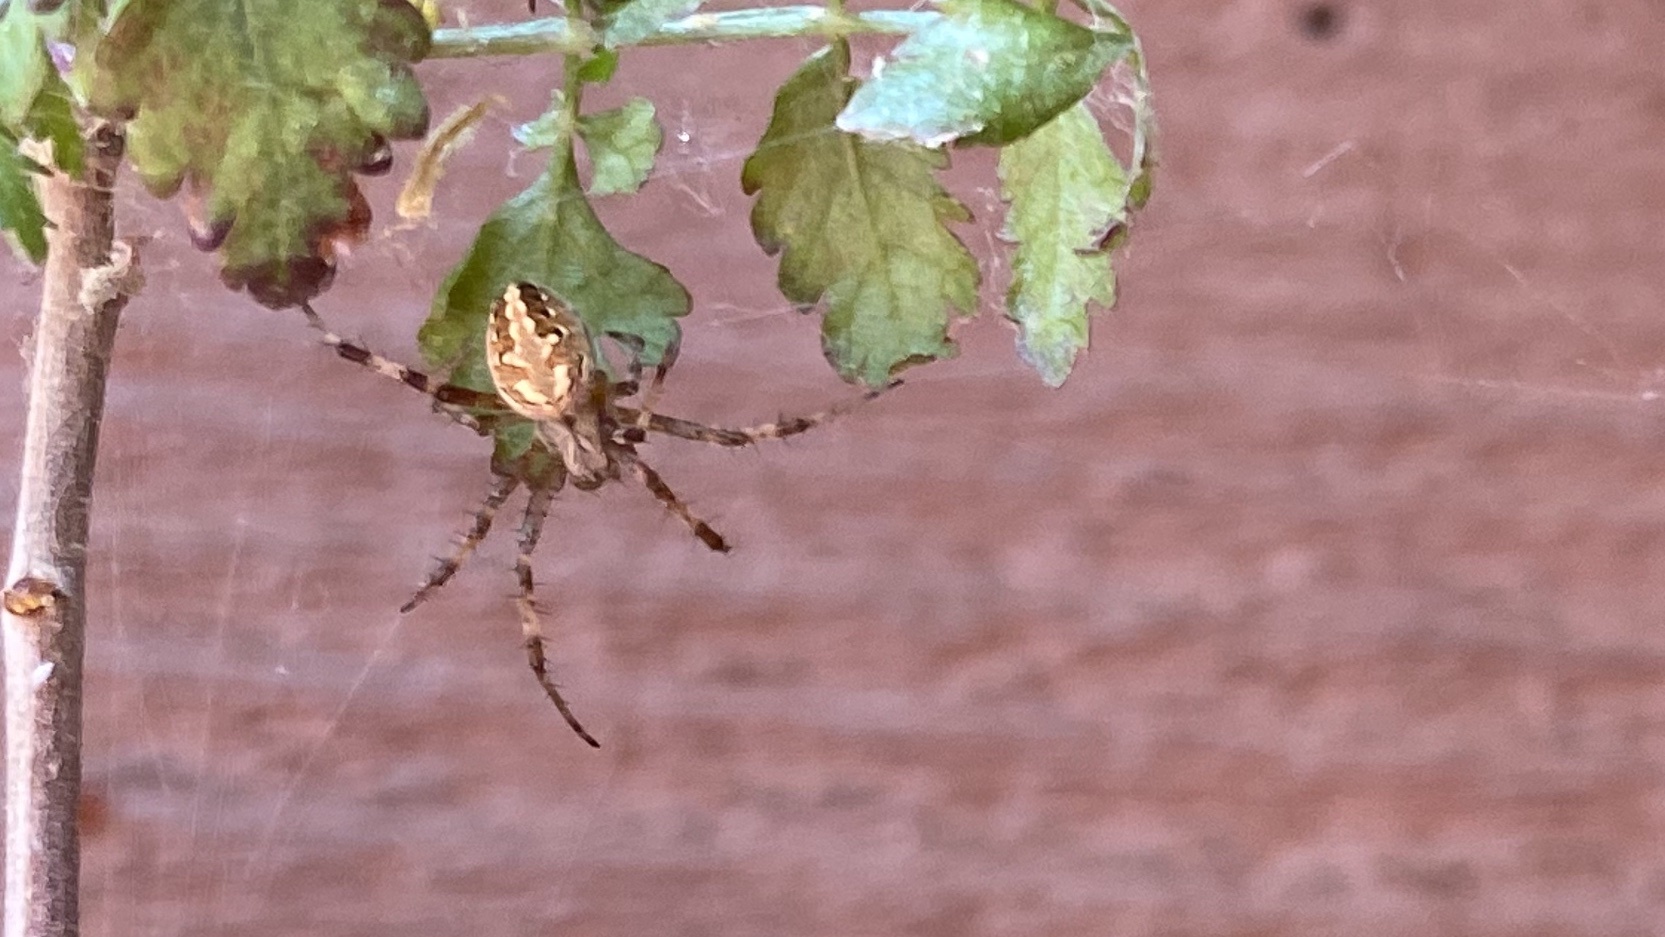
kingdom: Animalia
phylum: Arthropoda
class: Arachnida
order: Araneae
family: Araneidae
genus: Neoscona
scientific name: Neoscona oaxacensis
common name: Orb weavers
